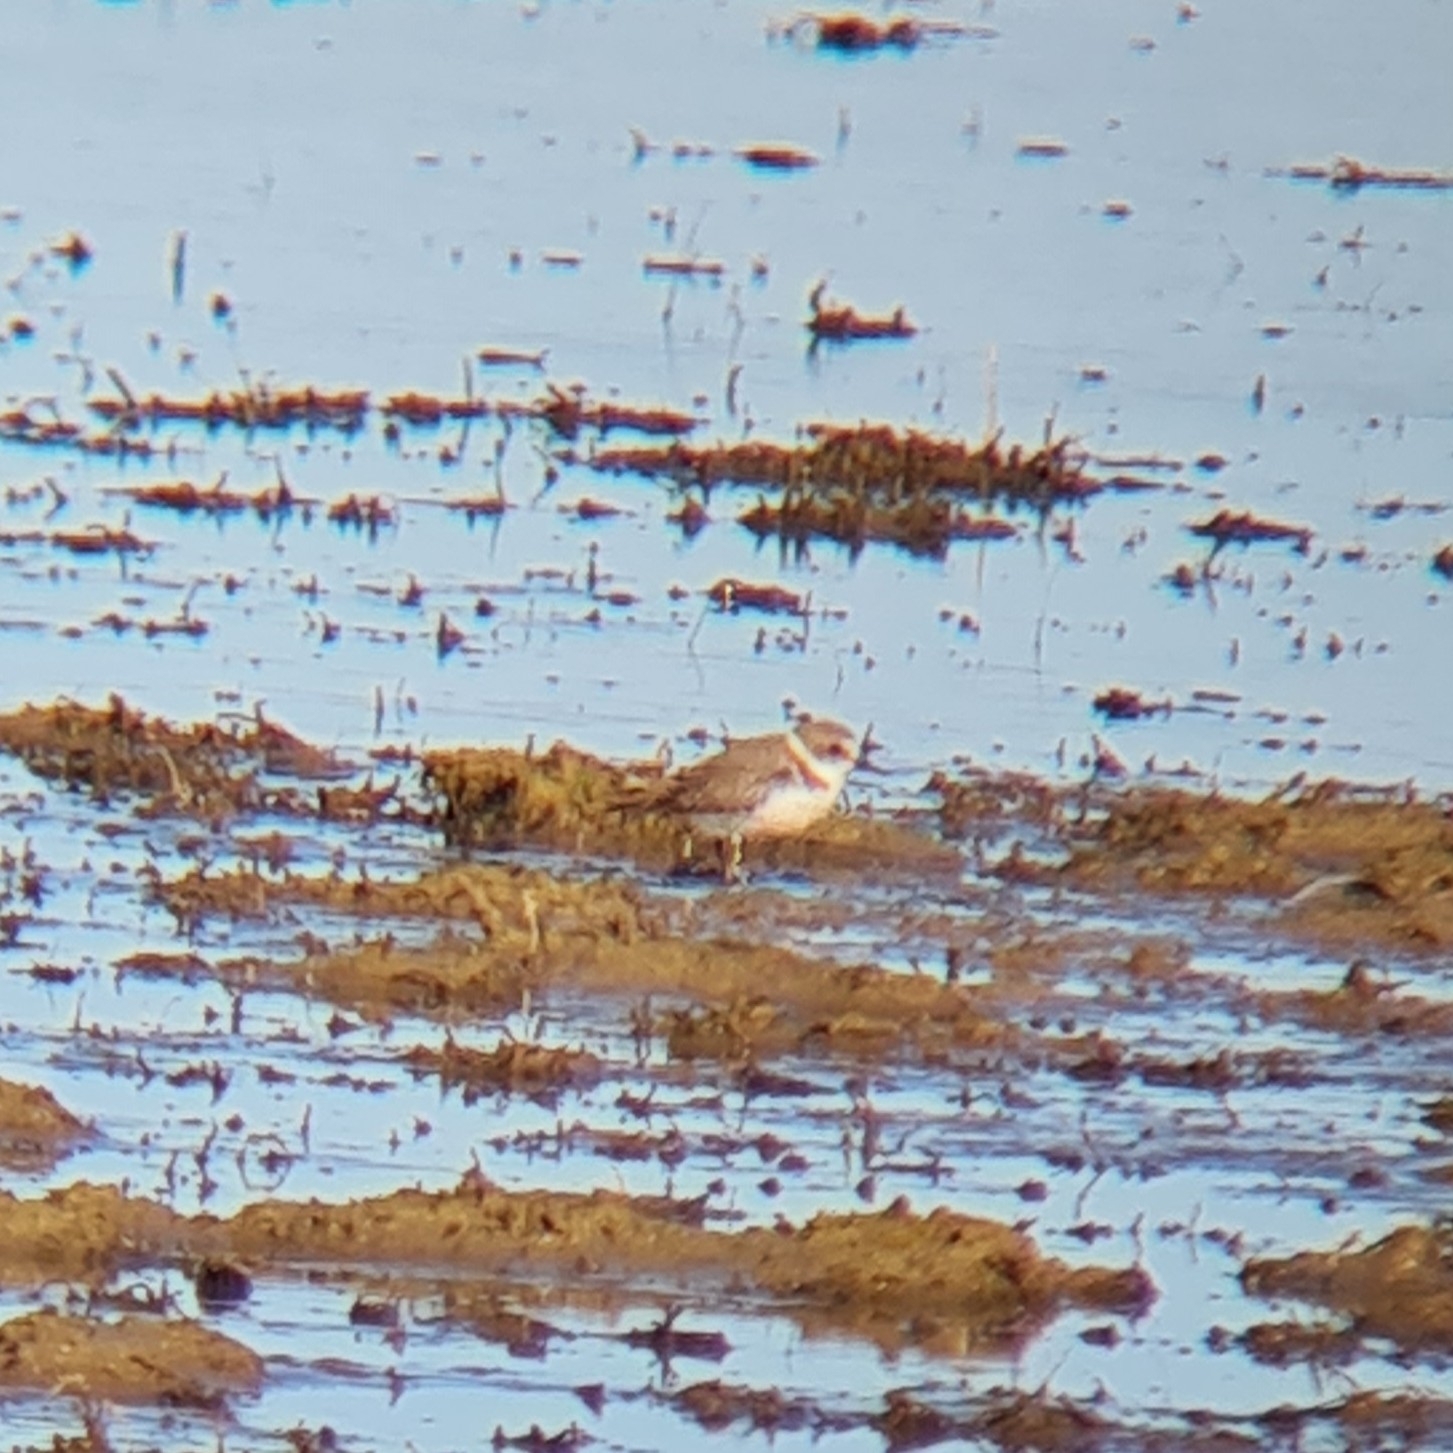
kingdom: Animalia
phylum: Chordata
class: Aves
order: Charadriiformes
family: Charadriidae
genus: Charadrius
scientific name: Charadrius alexandrinus
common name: Kentish plover
